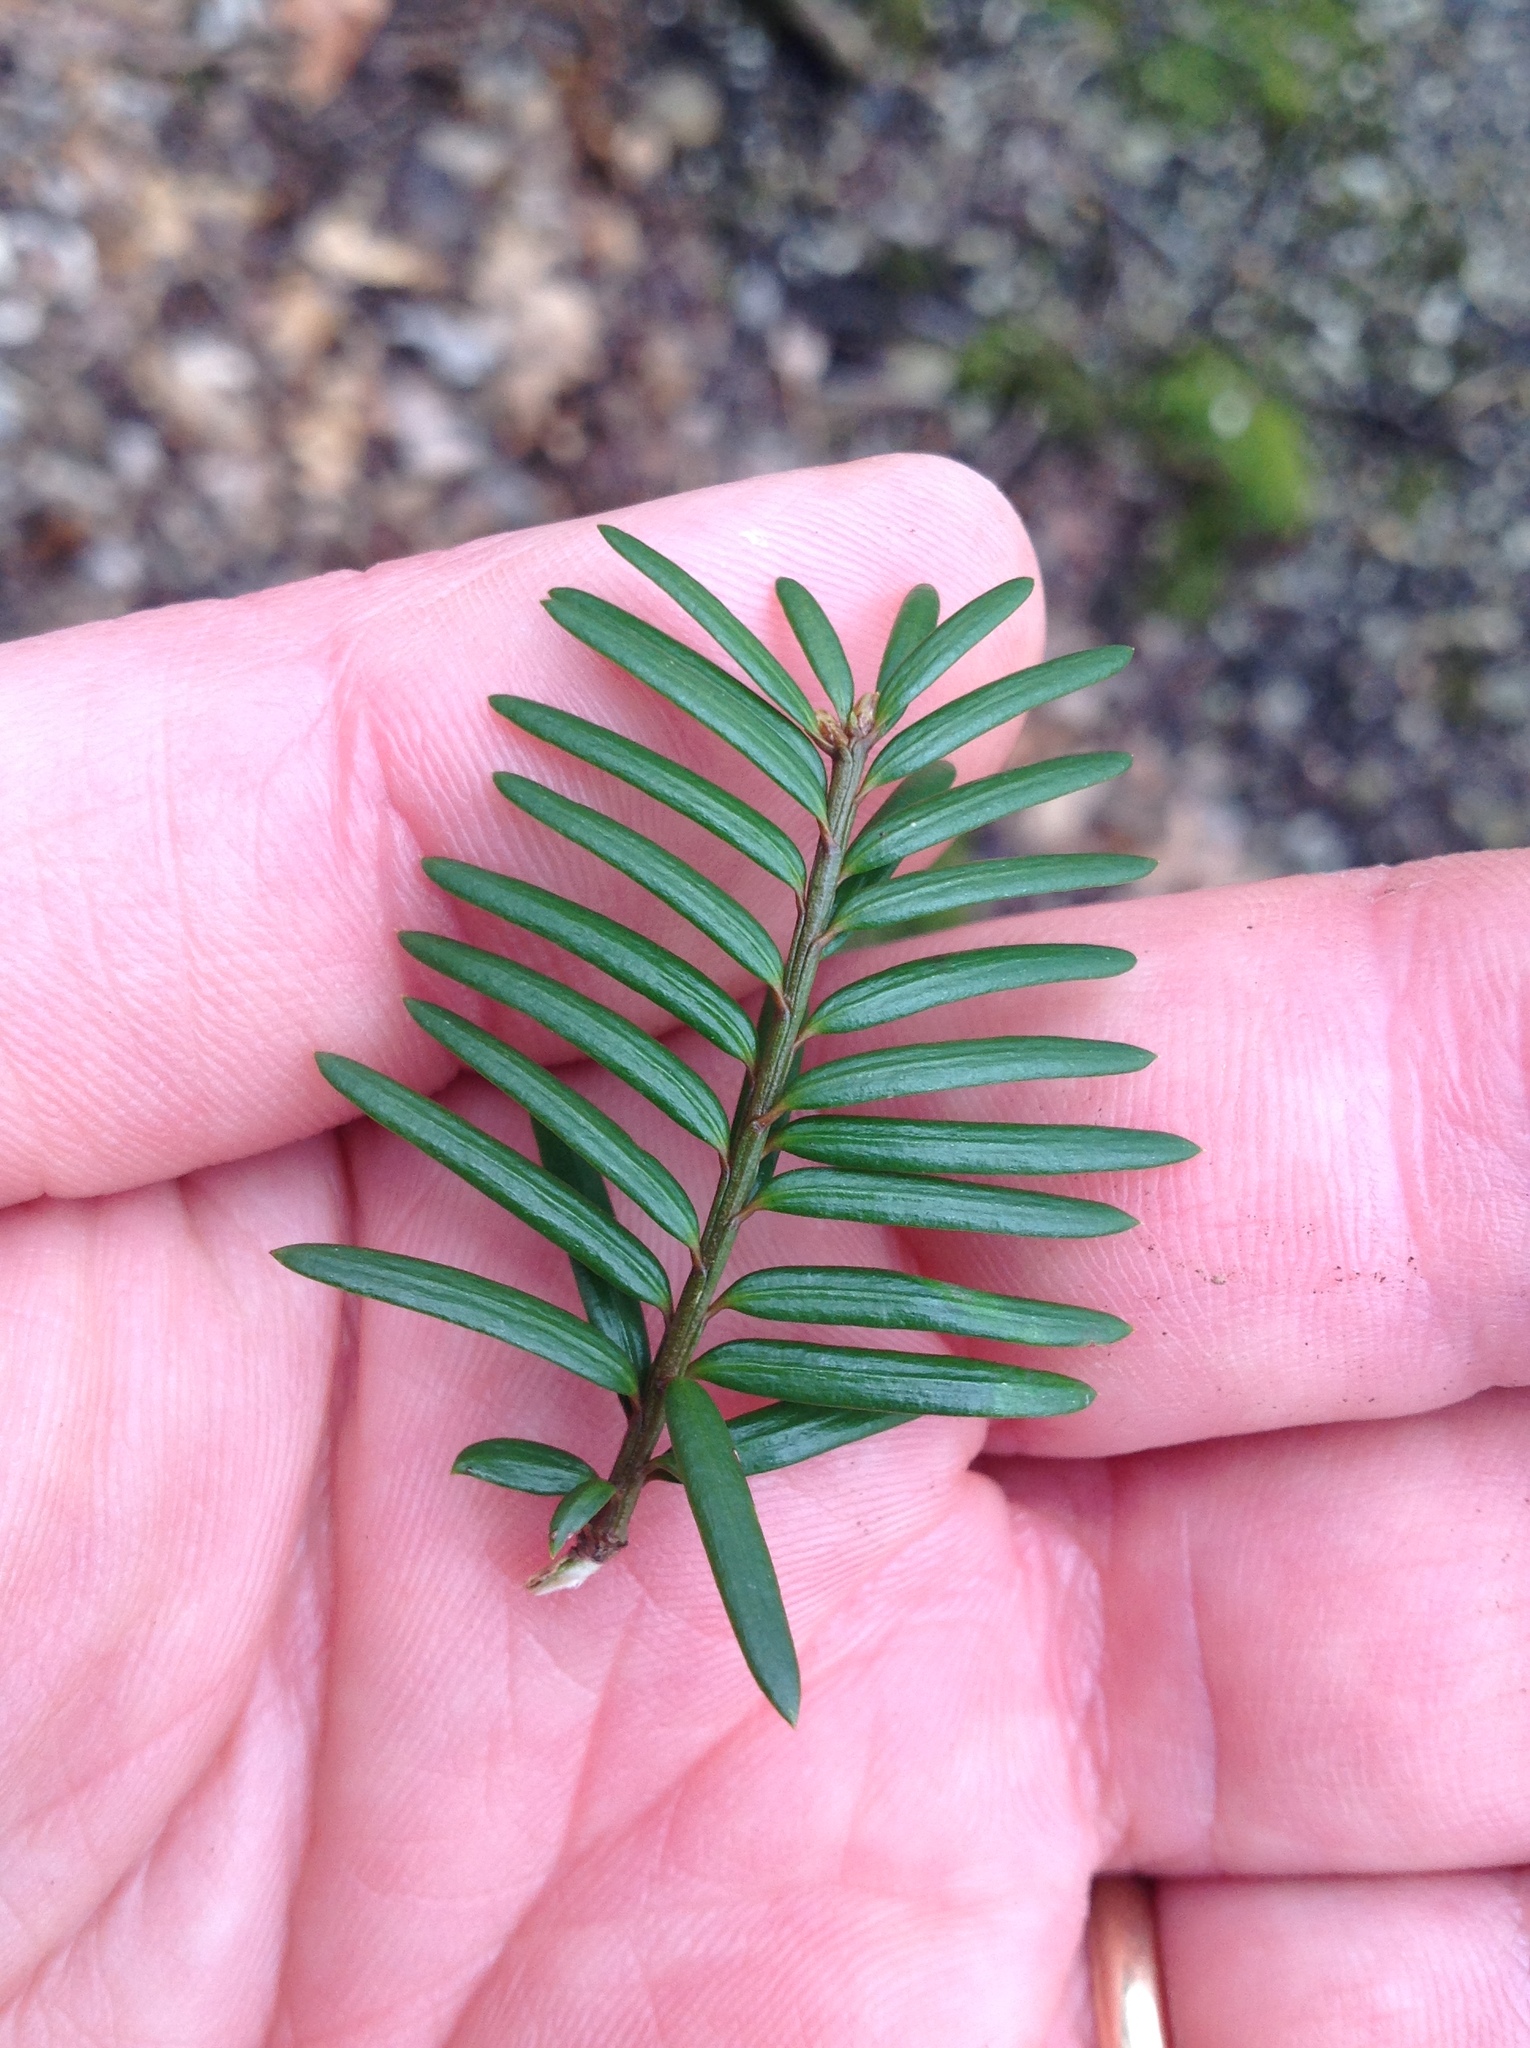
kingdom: Plantae
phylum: Tracheophyta
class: Pinopsida
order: Pinales
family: Taxaceae
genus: Taxus
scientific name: Taxus canadensis
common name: American yew
